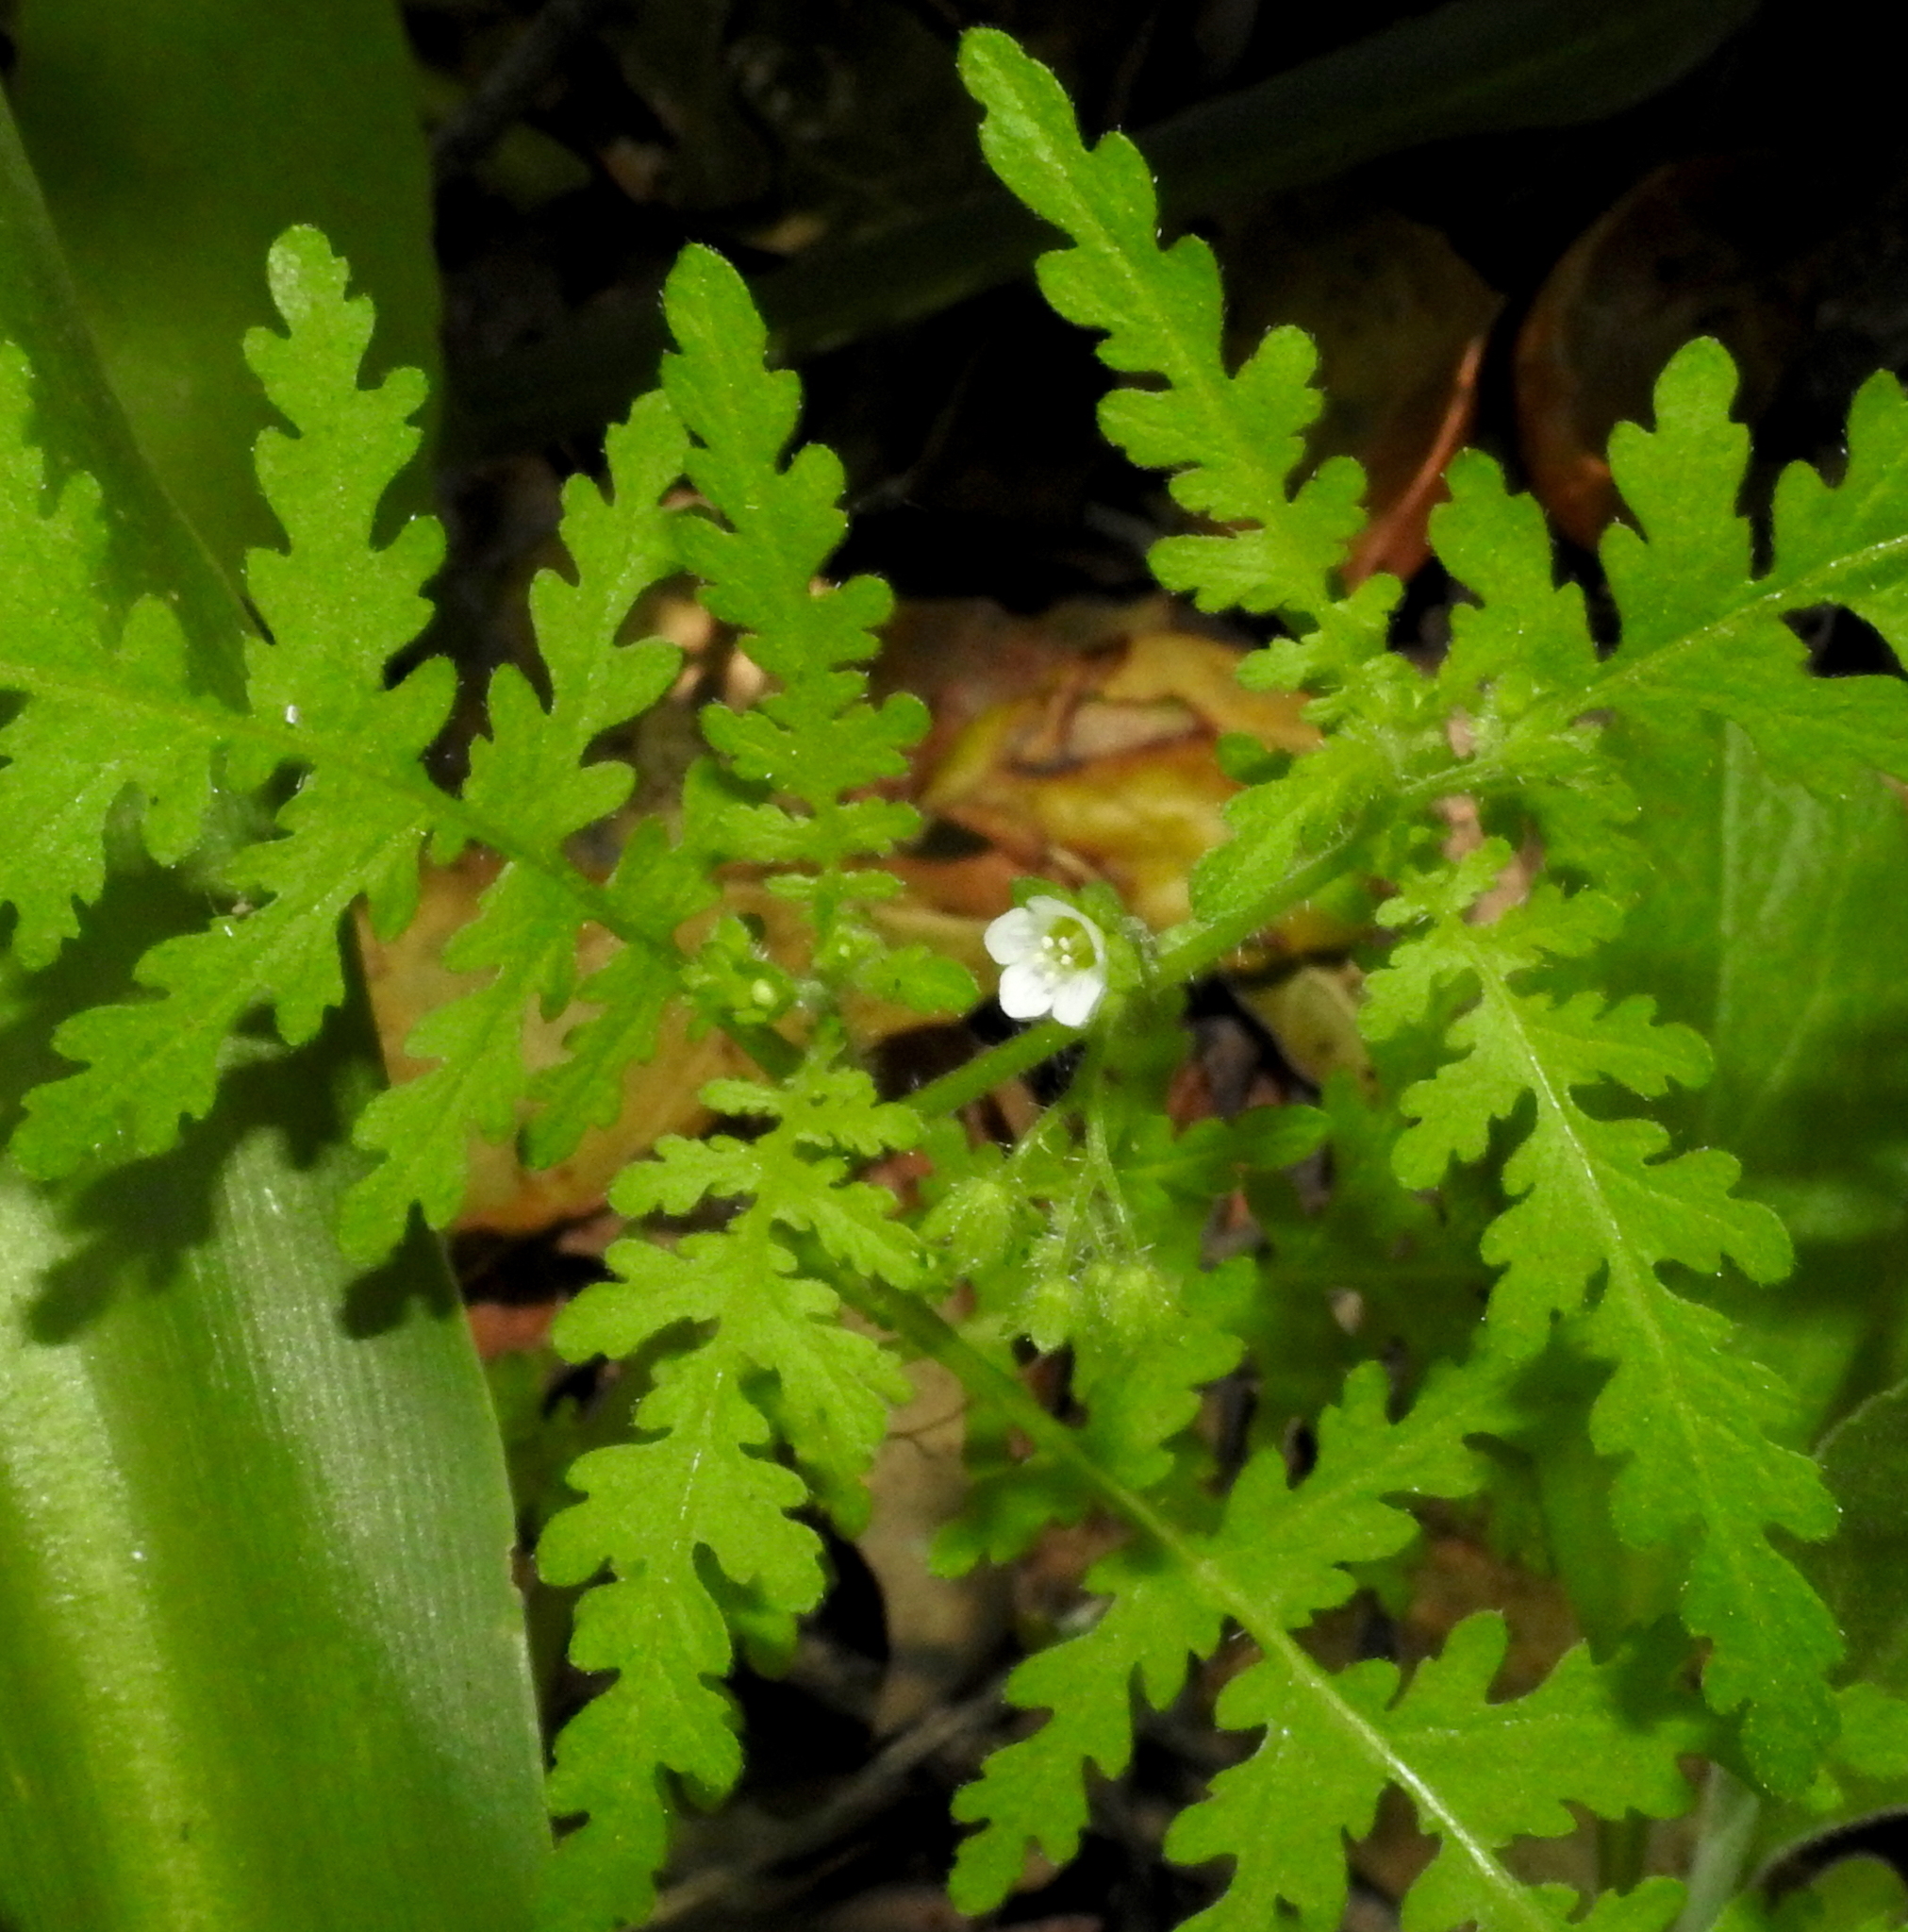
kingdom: Plantae
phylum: Tracheophyta
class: Magnoliopsida
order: Boraginales
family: Hydrophyllaceae
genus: Eucrypta
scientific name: Eucrypta chrysanthemifolia
